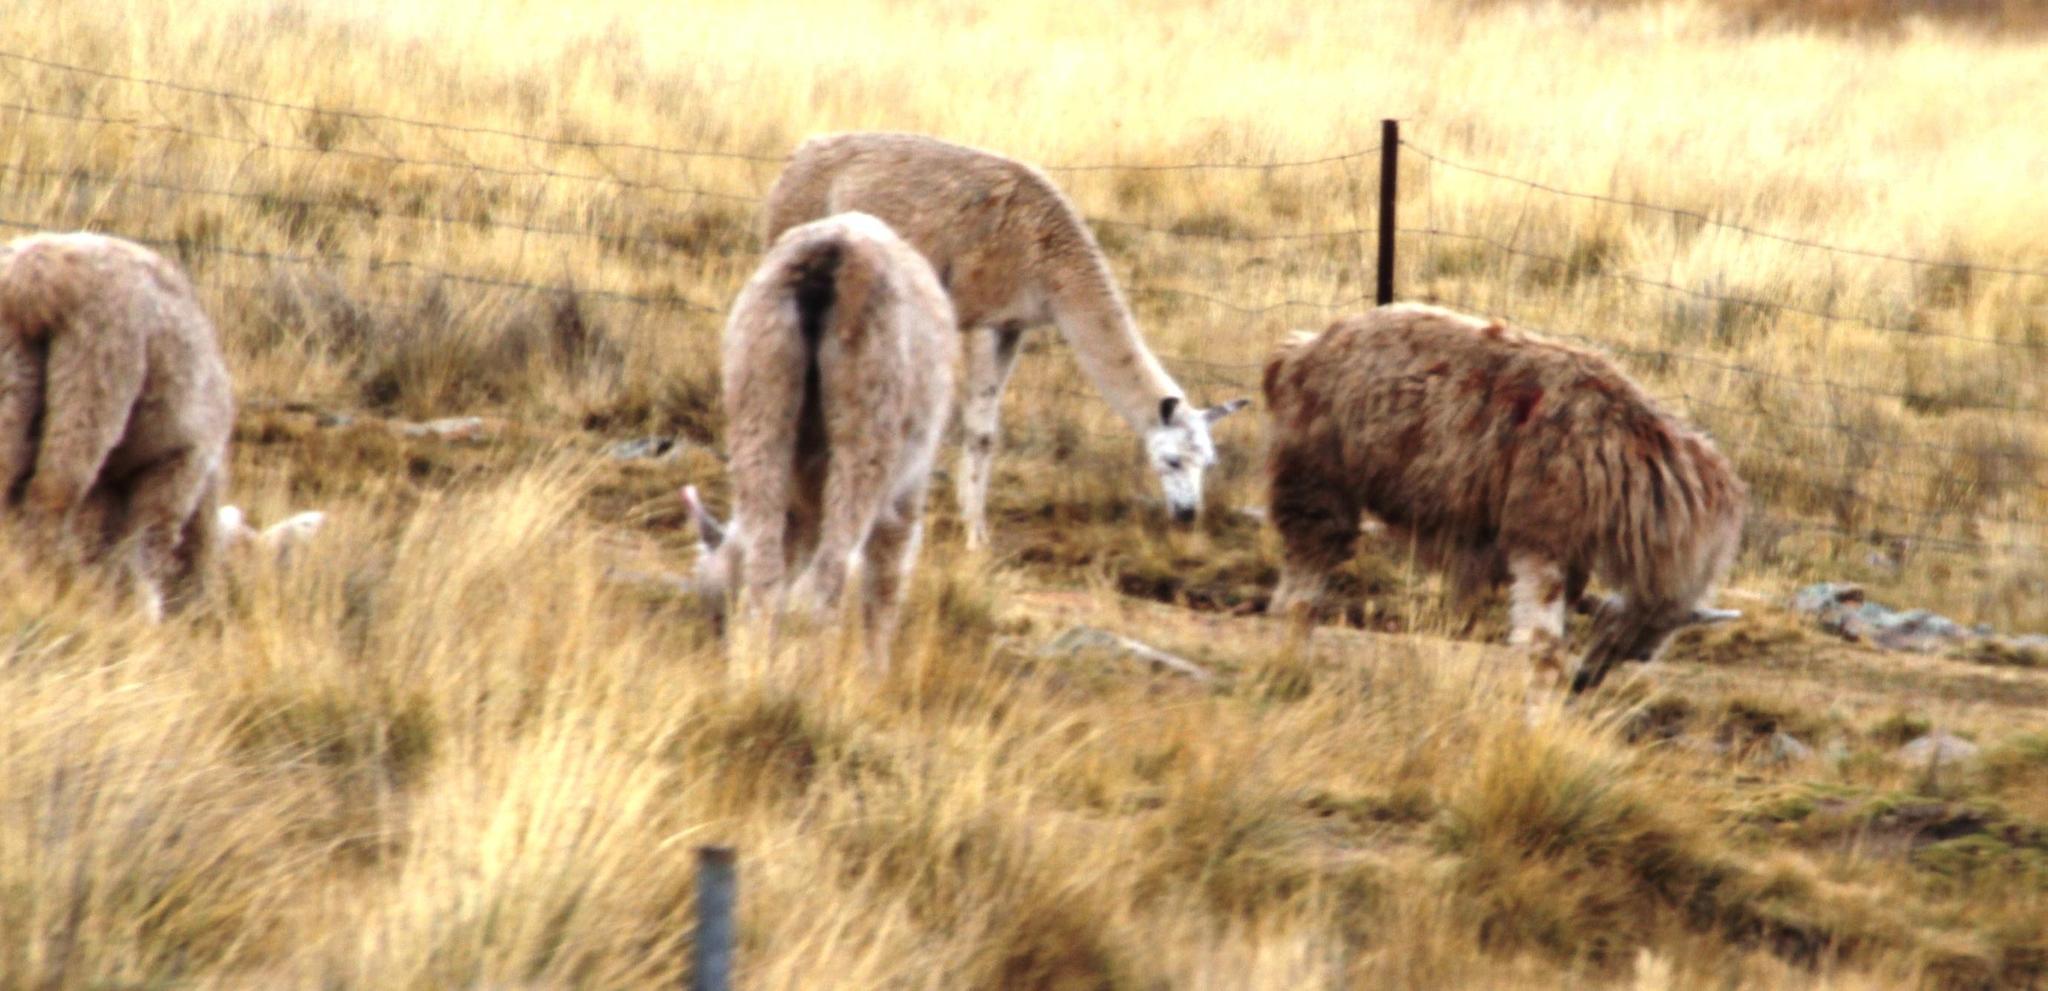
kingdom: Animalia
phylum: Chordata
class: Mammalia
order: Artiodactyla
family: Camelidae
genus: Vicugna
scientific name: Vicugna pacos
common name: Alpaca
